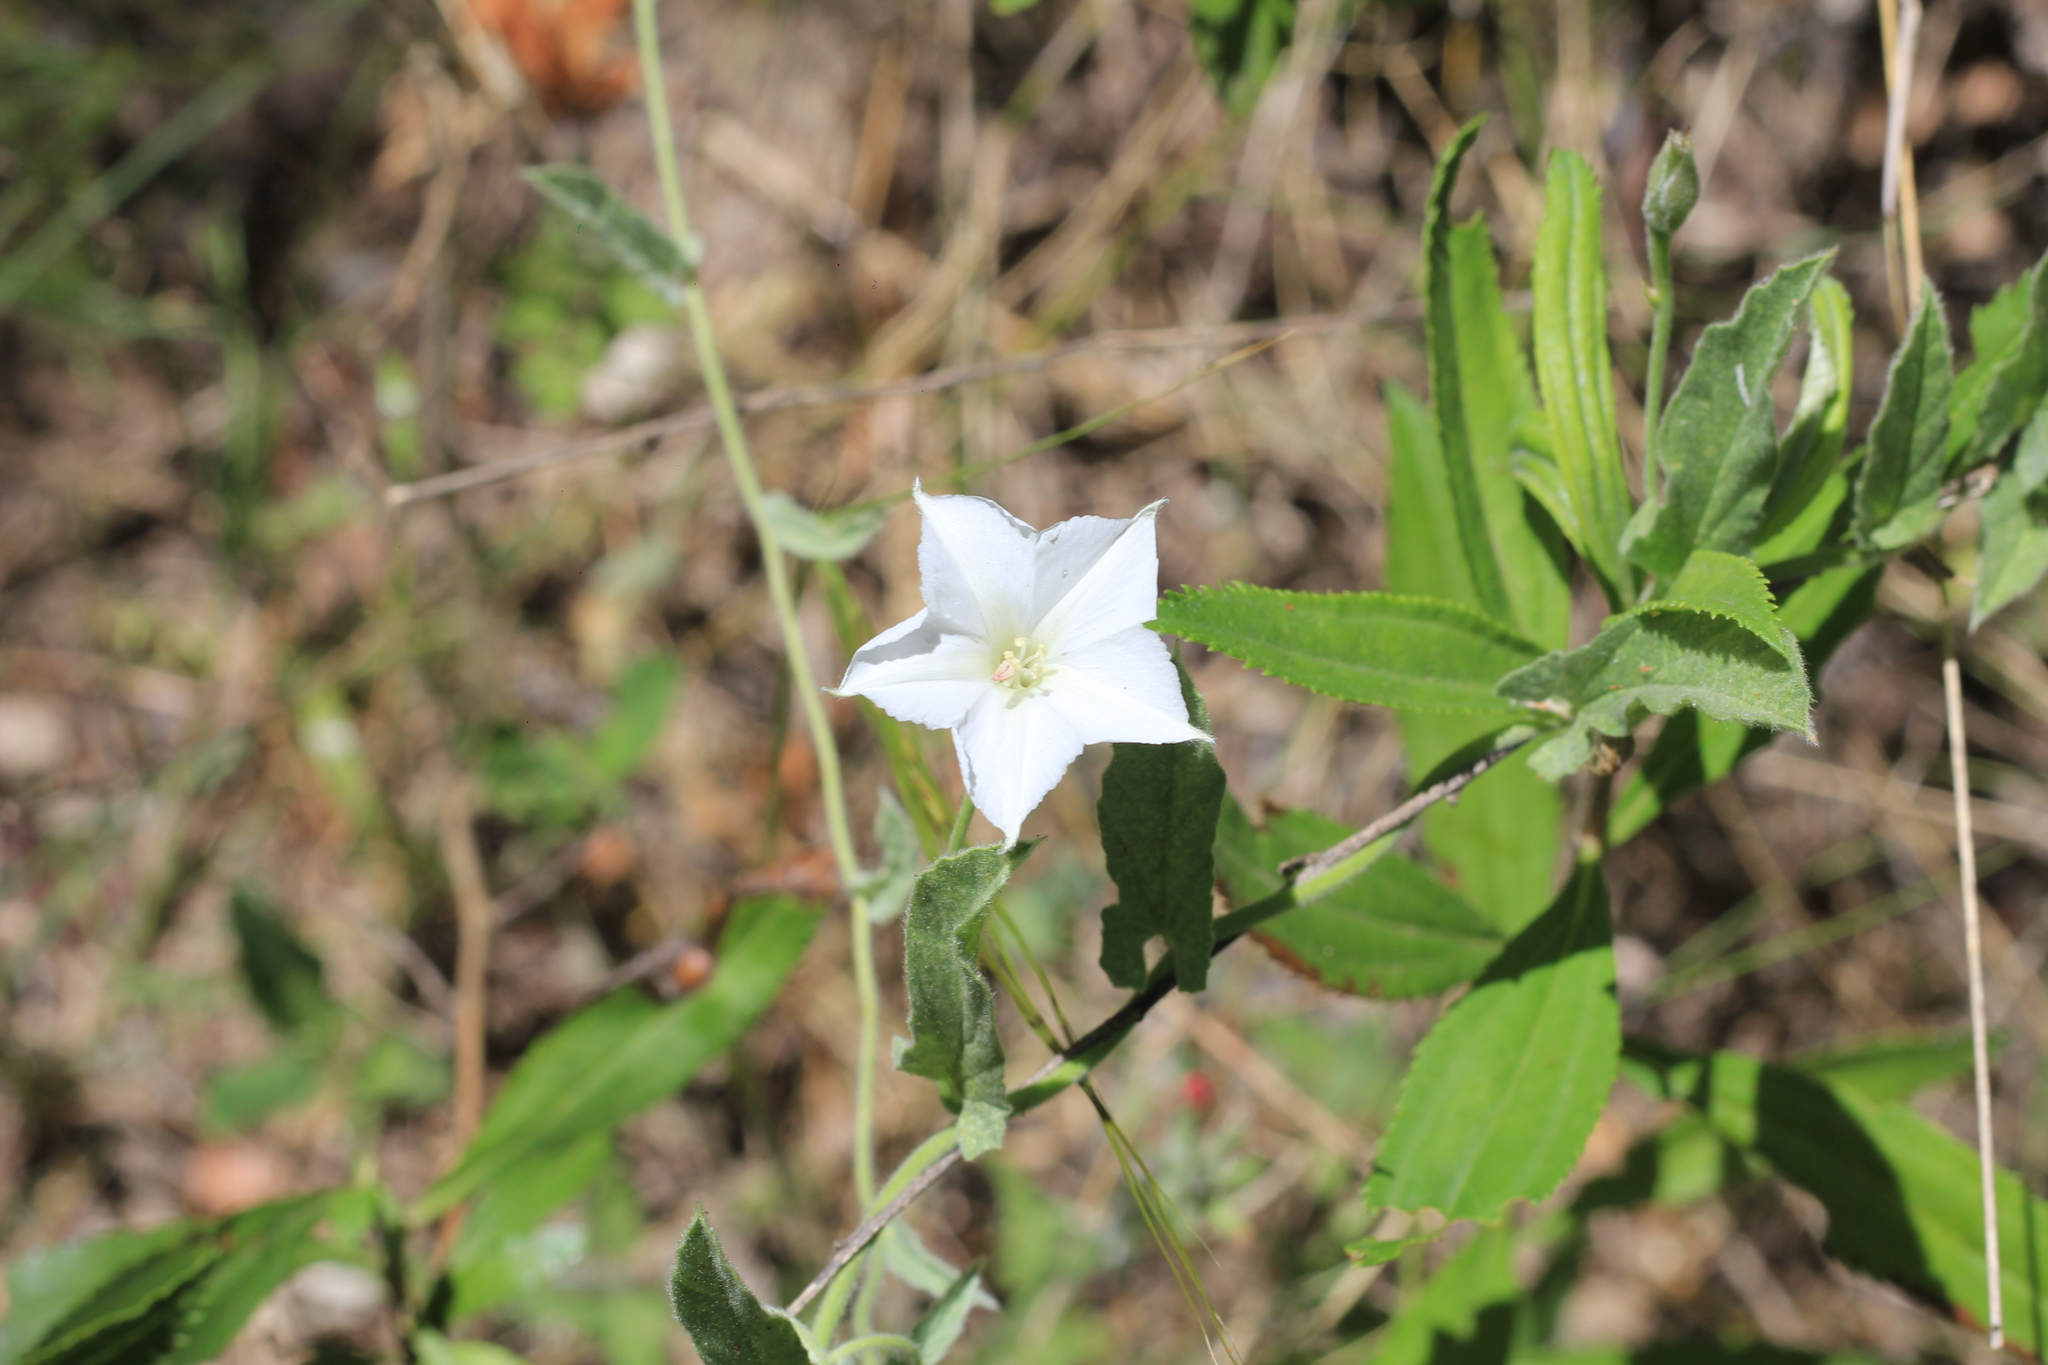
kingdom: Plantae
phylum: Tracheophyta
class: Magnoliopsida
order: Solanales
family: Convolvulaceae
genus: Convolvulus
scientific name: Convolvulus hermanniae
